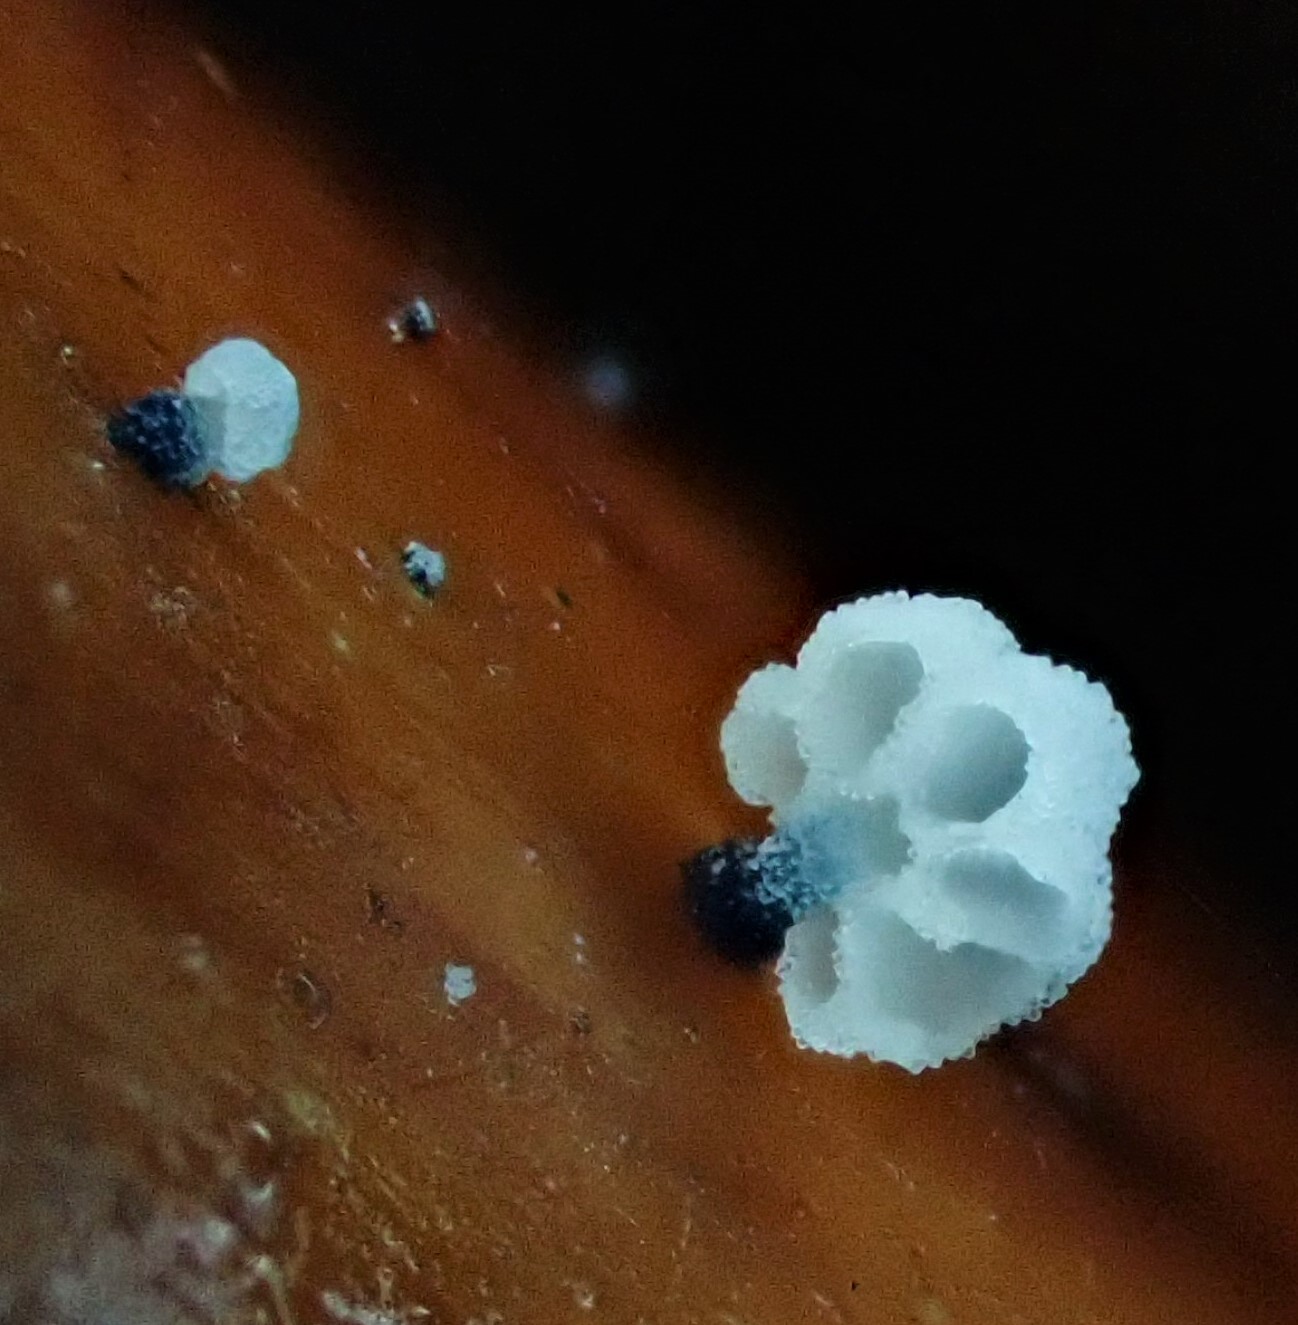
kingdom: Fungi
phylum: Basidiomycota
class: Agaricomycetes
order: Agaricales
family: Mycenaceae
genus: Mycena
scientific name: Mycena lazulina
